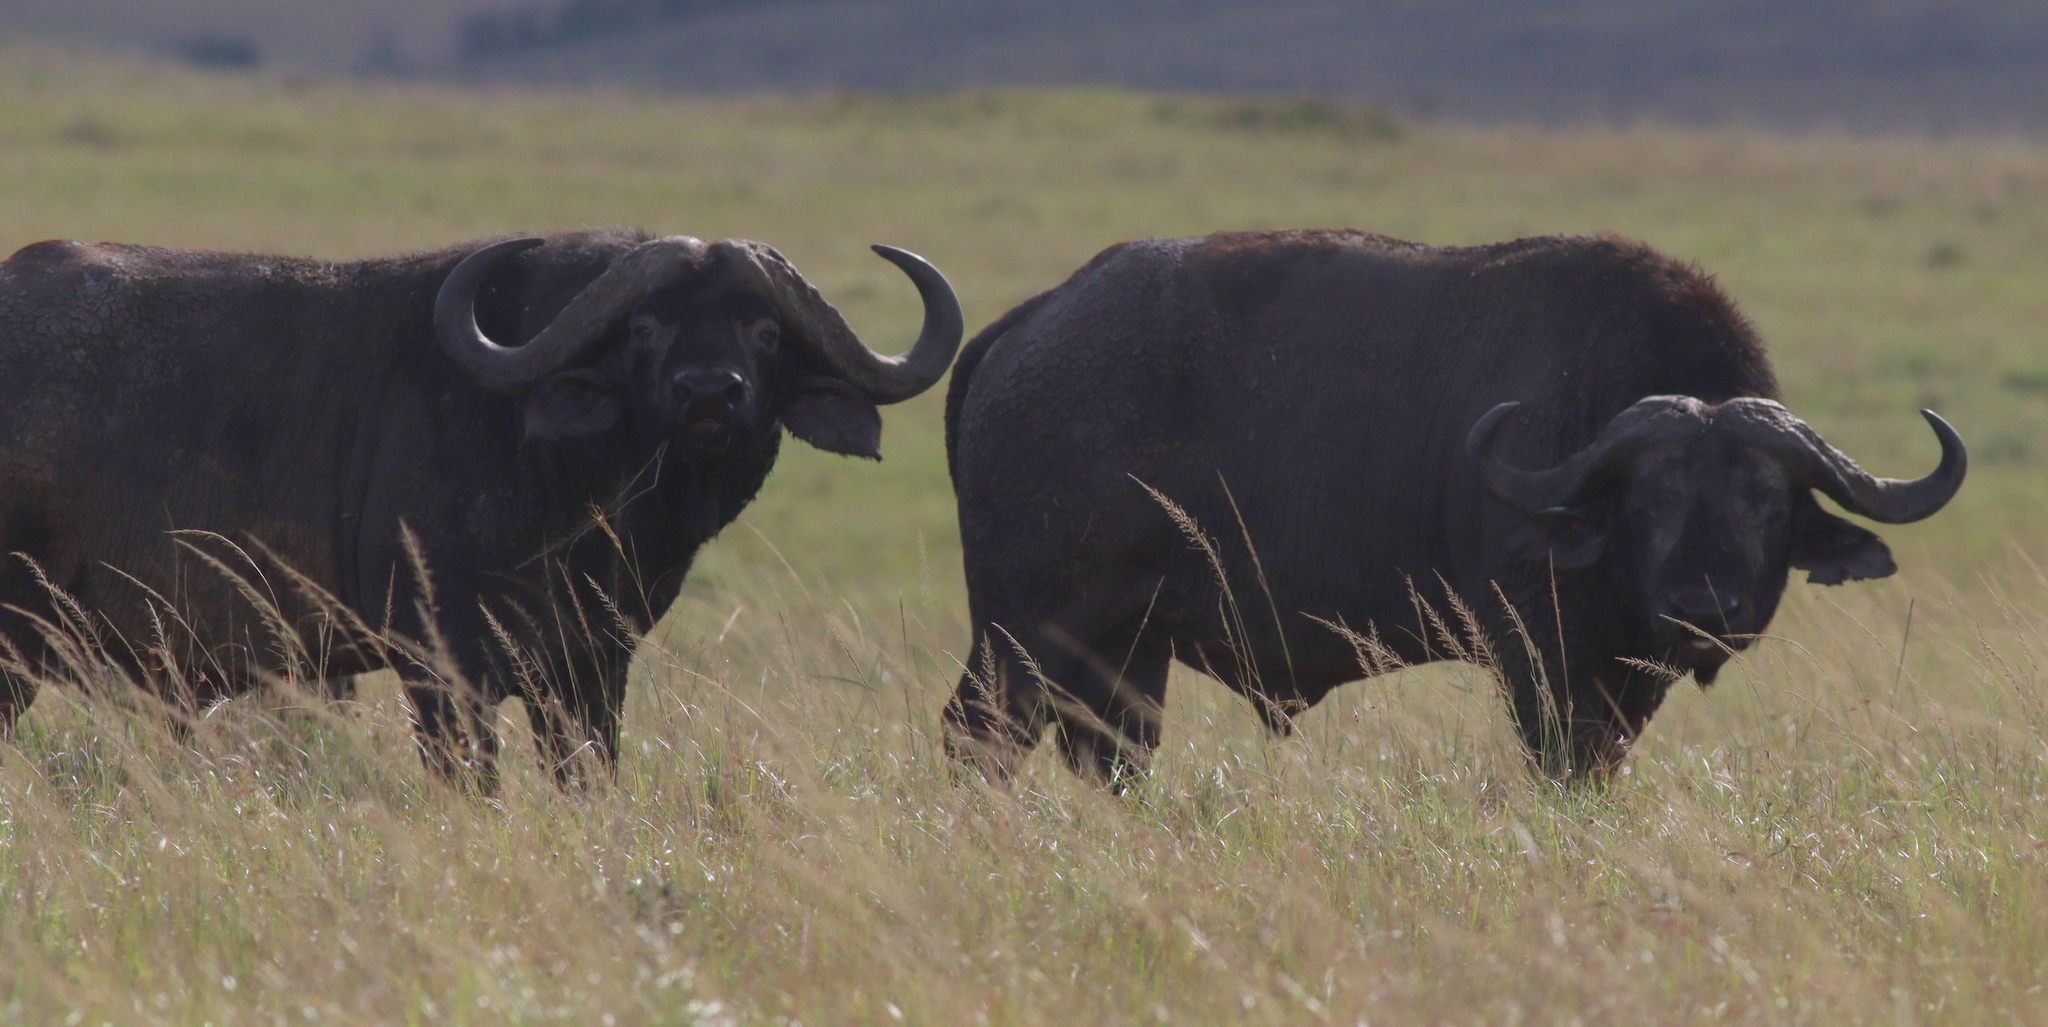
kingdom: Animalia
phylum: Chordata
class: Mammalia
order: Artiodactyla
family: Bovidae
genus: Syncerus
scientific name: Syncerus caffer
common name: African buffalo
